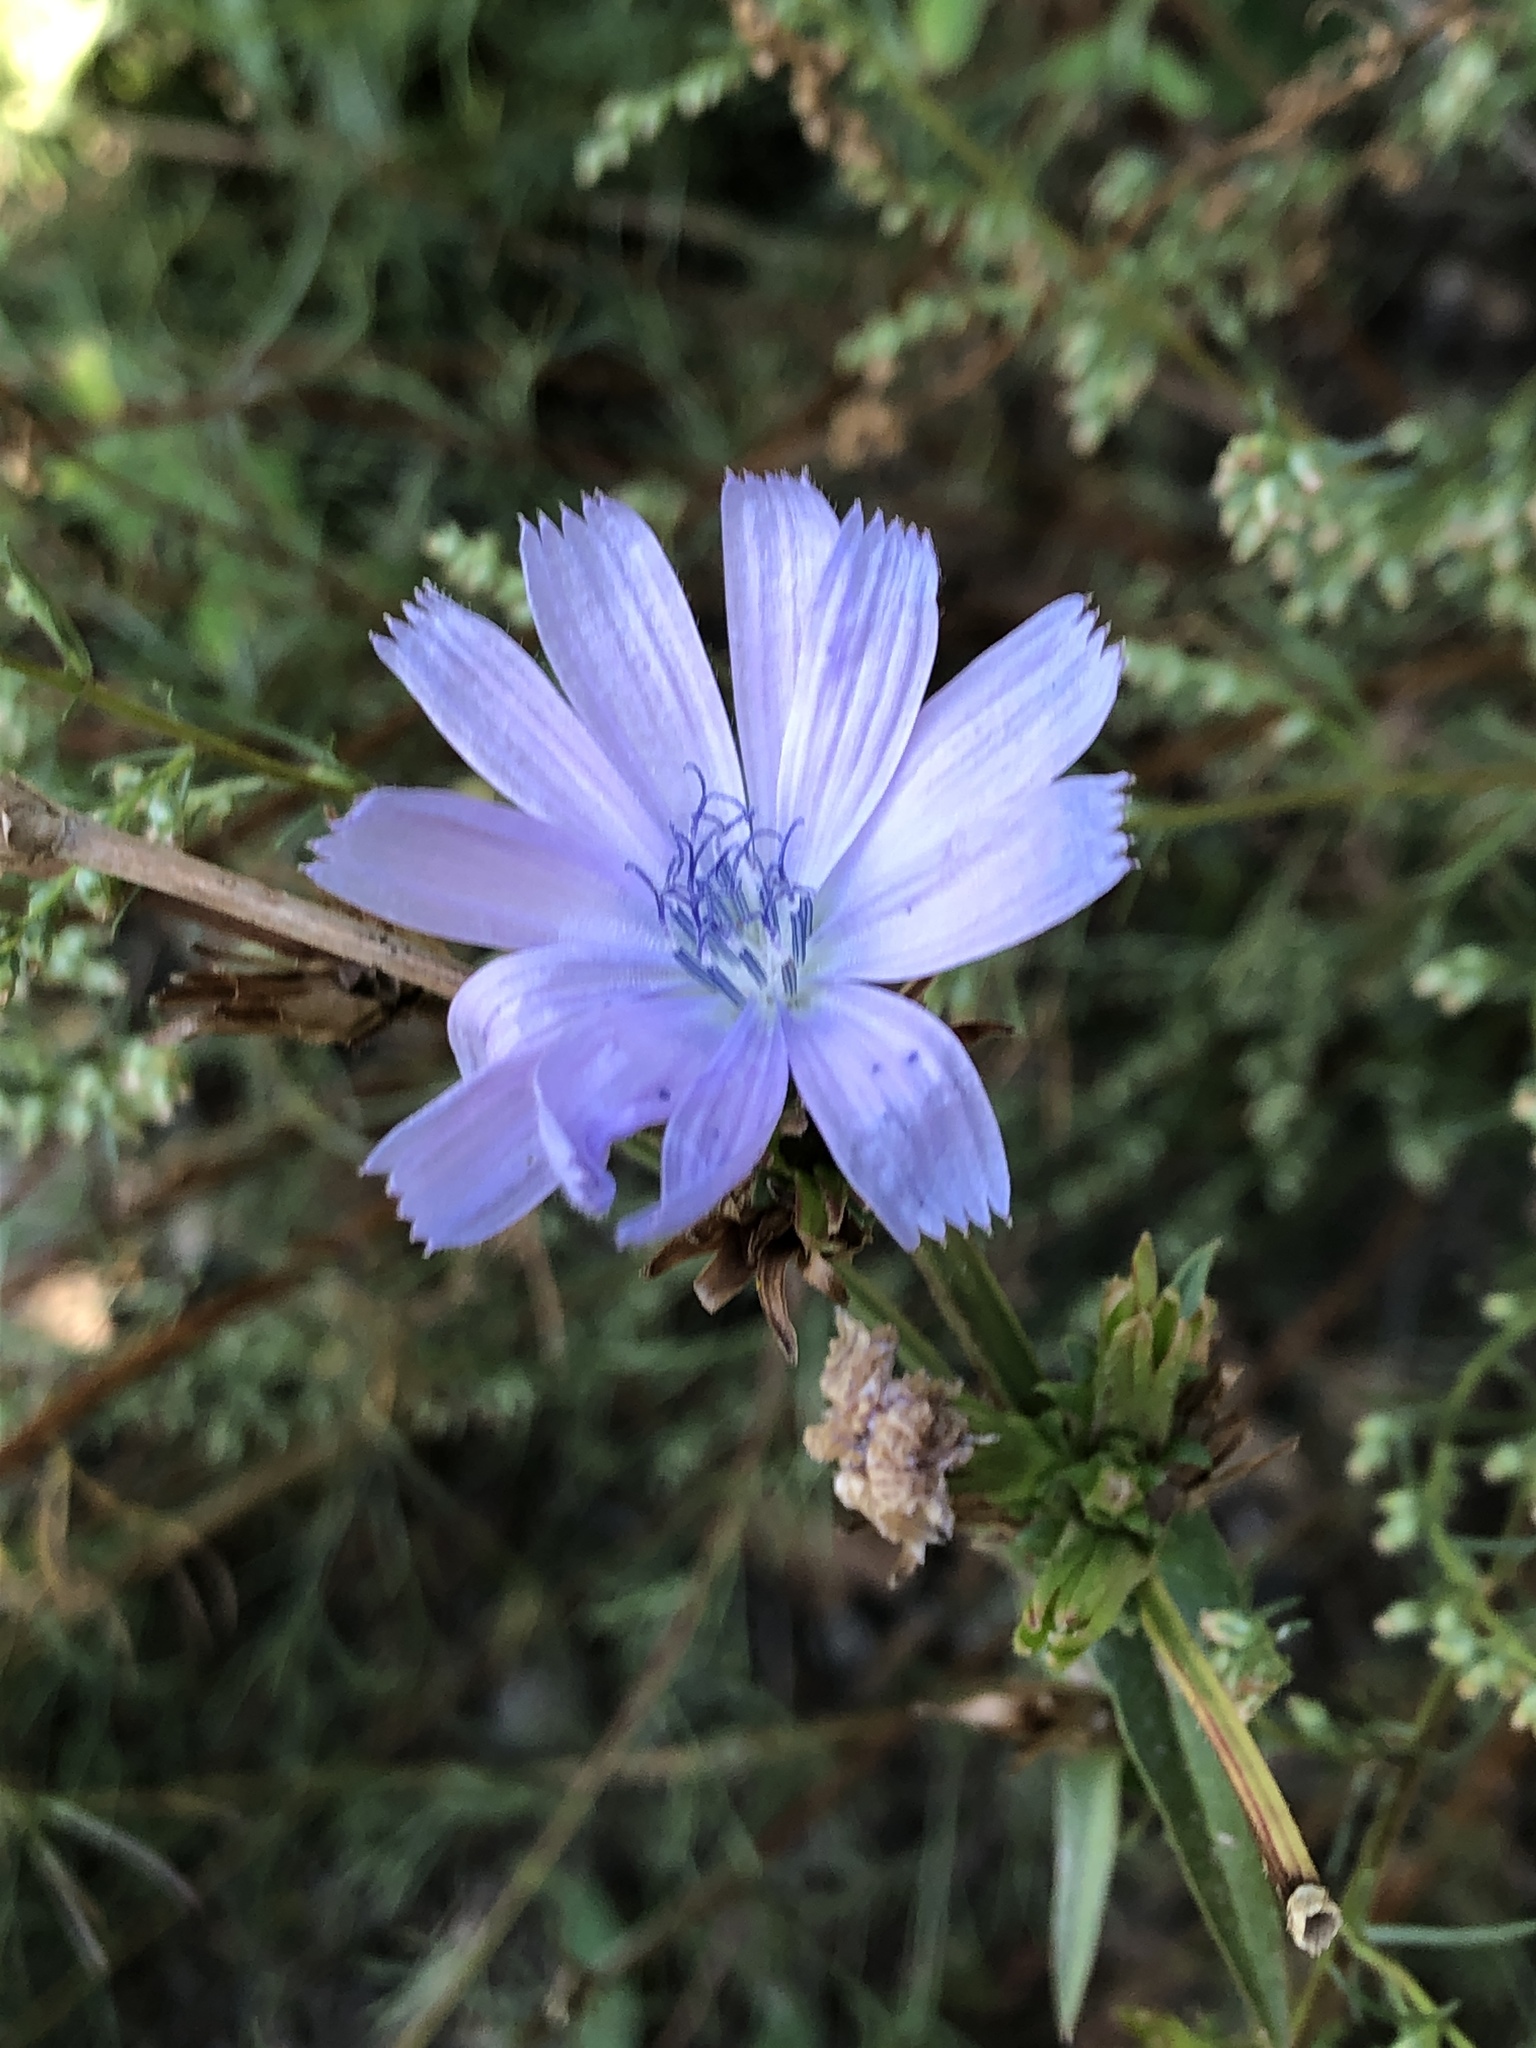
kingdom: Plantae
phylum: Tracheophyta
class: Magnoliopsida
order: Asterales
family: Asteraceae
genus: Cichorium
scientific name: Cichorium intybus
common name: Chicory
